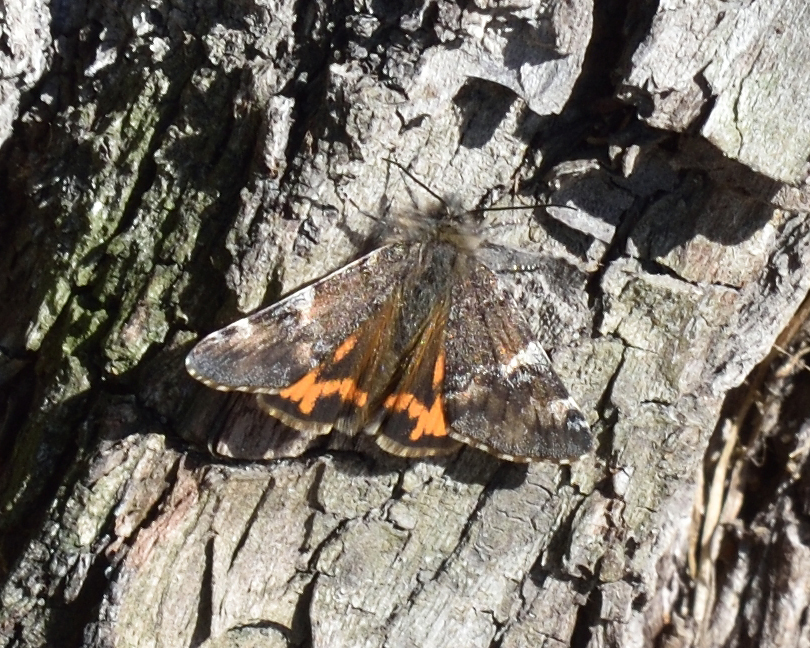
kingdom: Animalia
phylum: Arthropoda
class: Insecta
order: Lepidoptera
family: Geometridae
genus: Archiearis
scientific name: Archiearis parthenias
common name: Orange underwing
